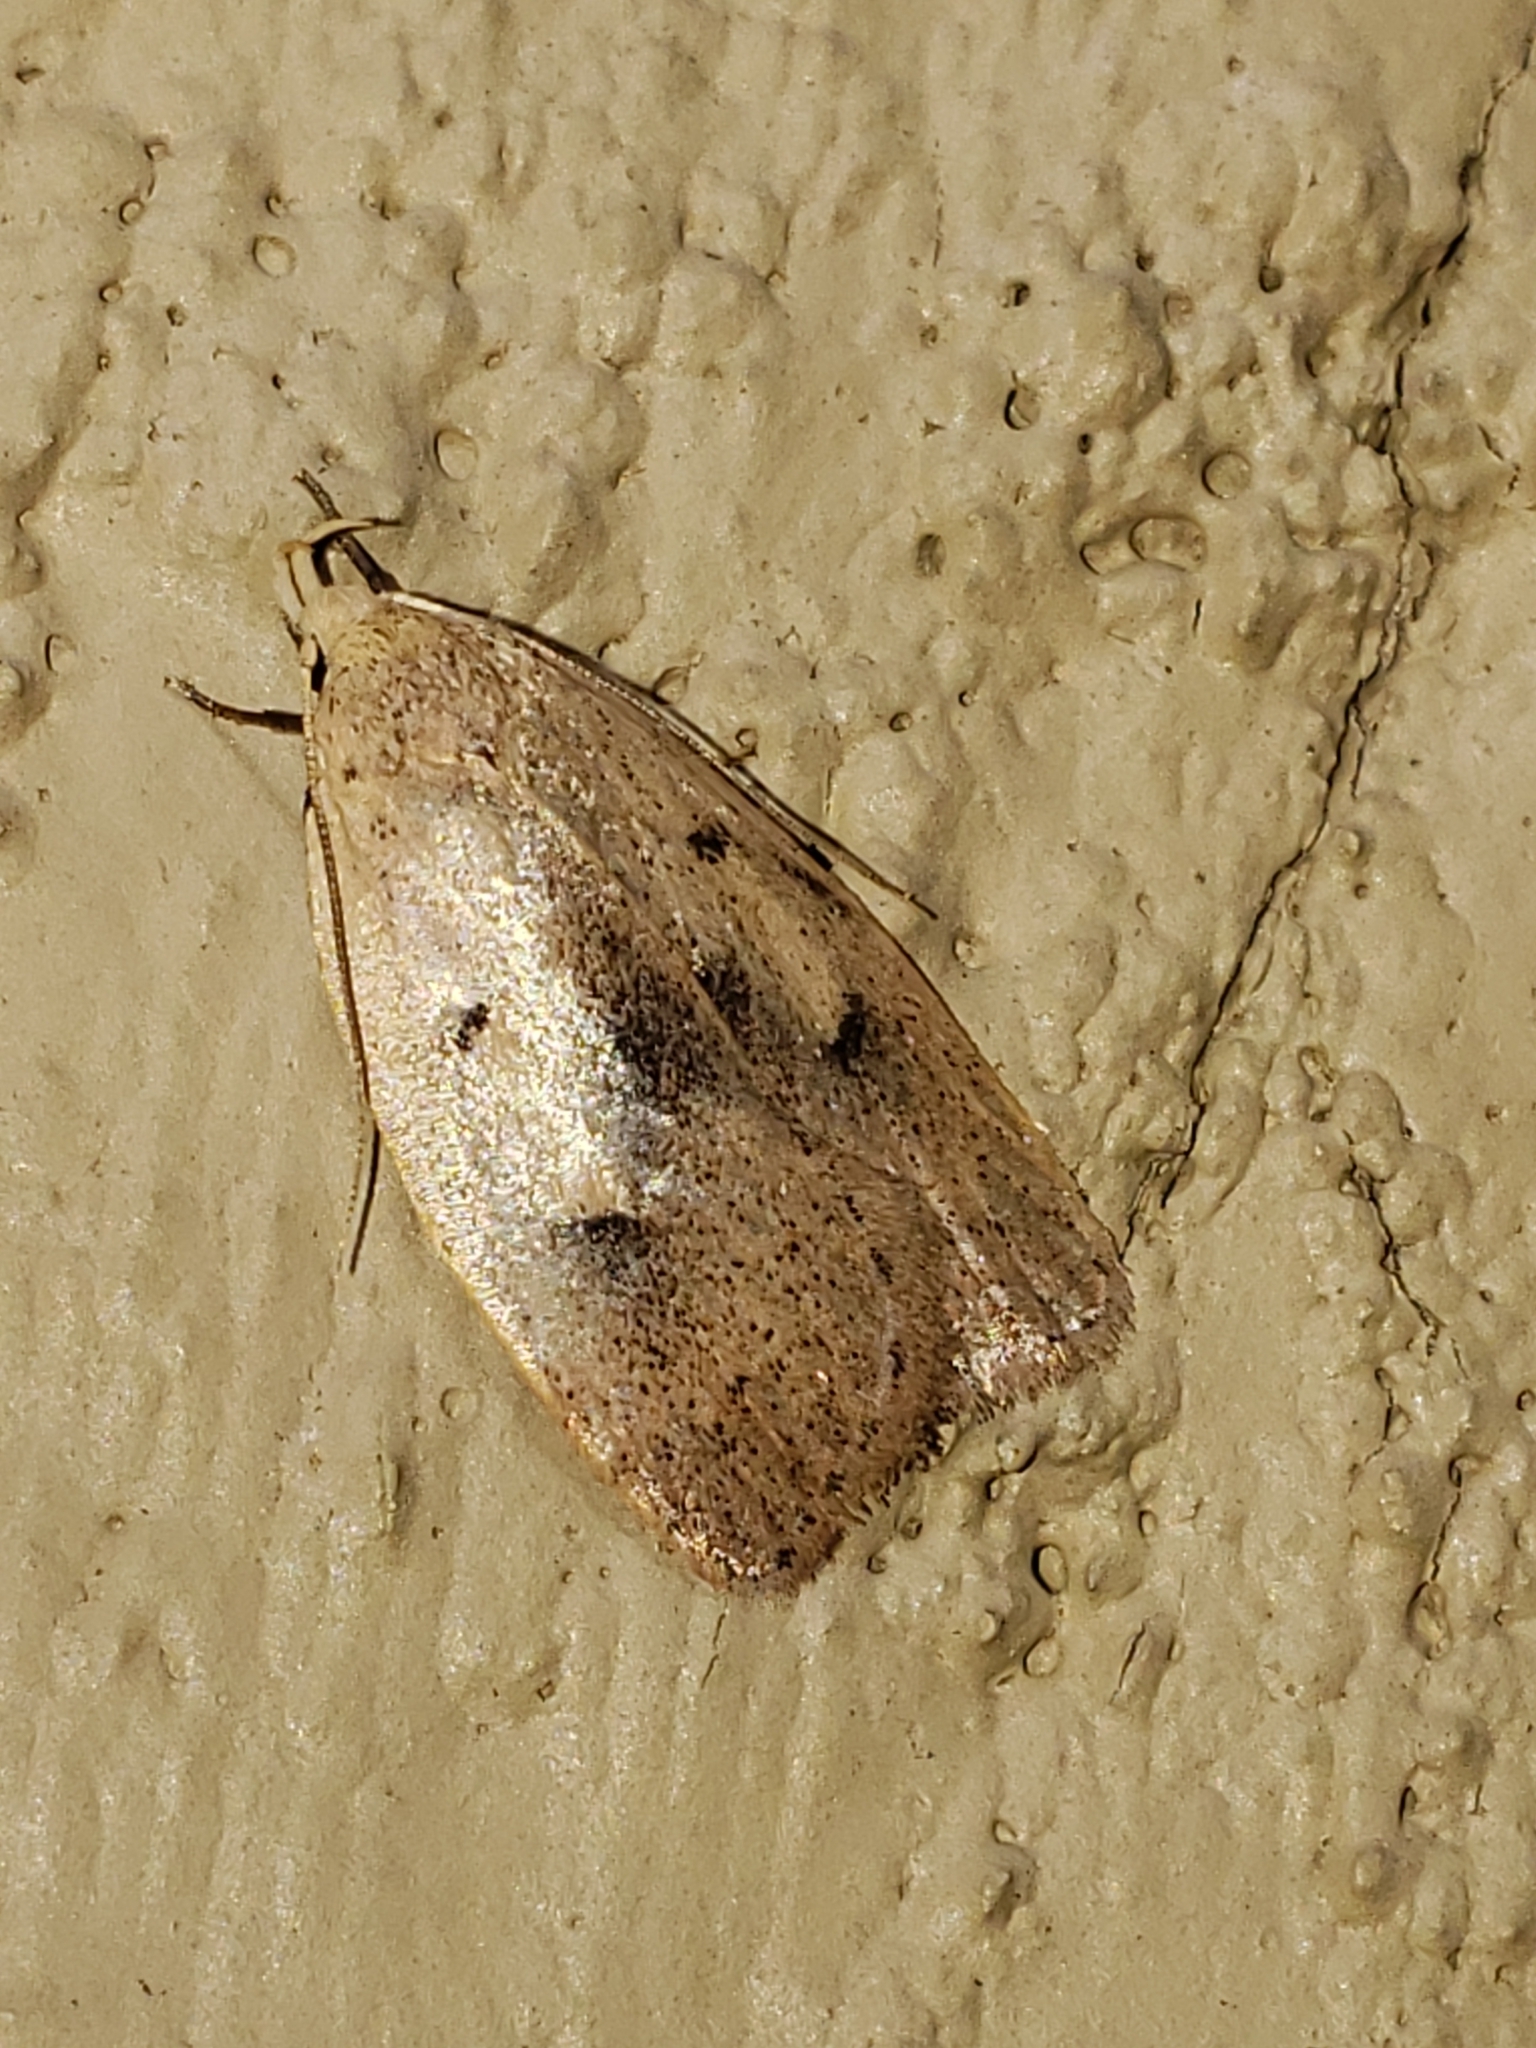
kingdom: Animalia
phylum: Arthropoda
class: Insecta
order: Lepidoptera
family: Peleopodidae
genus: Machimia
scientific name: Machimia tentoriferella
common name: Gold-striped leaftier moth
